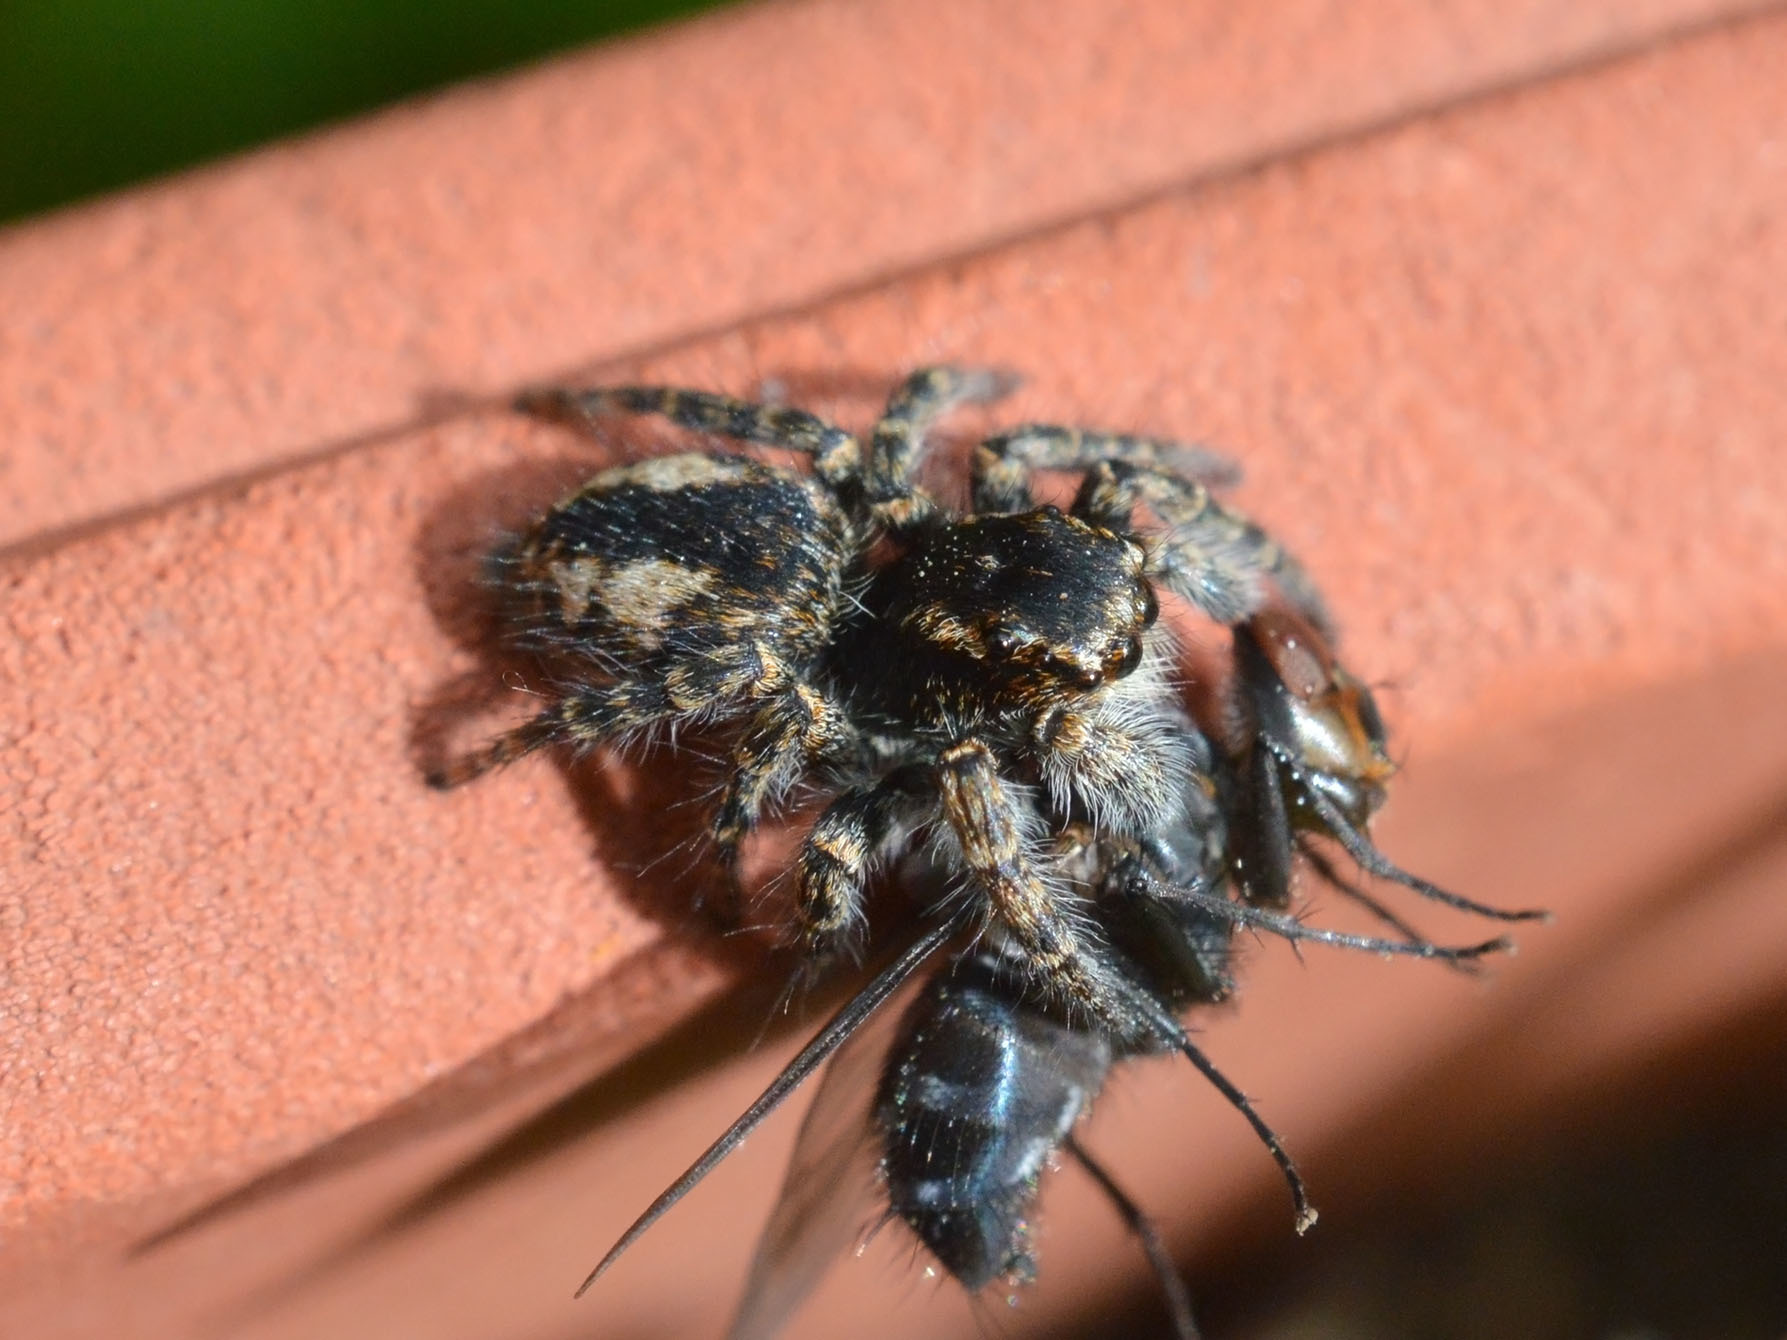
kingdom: Animalia
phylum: Arthropoda
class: Arachnida
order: Araneae
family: Salticidae
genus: Philaeus
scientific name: Philaeus chrysops
